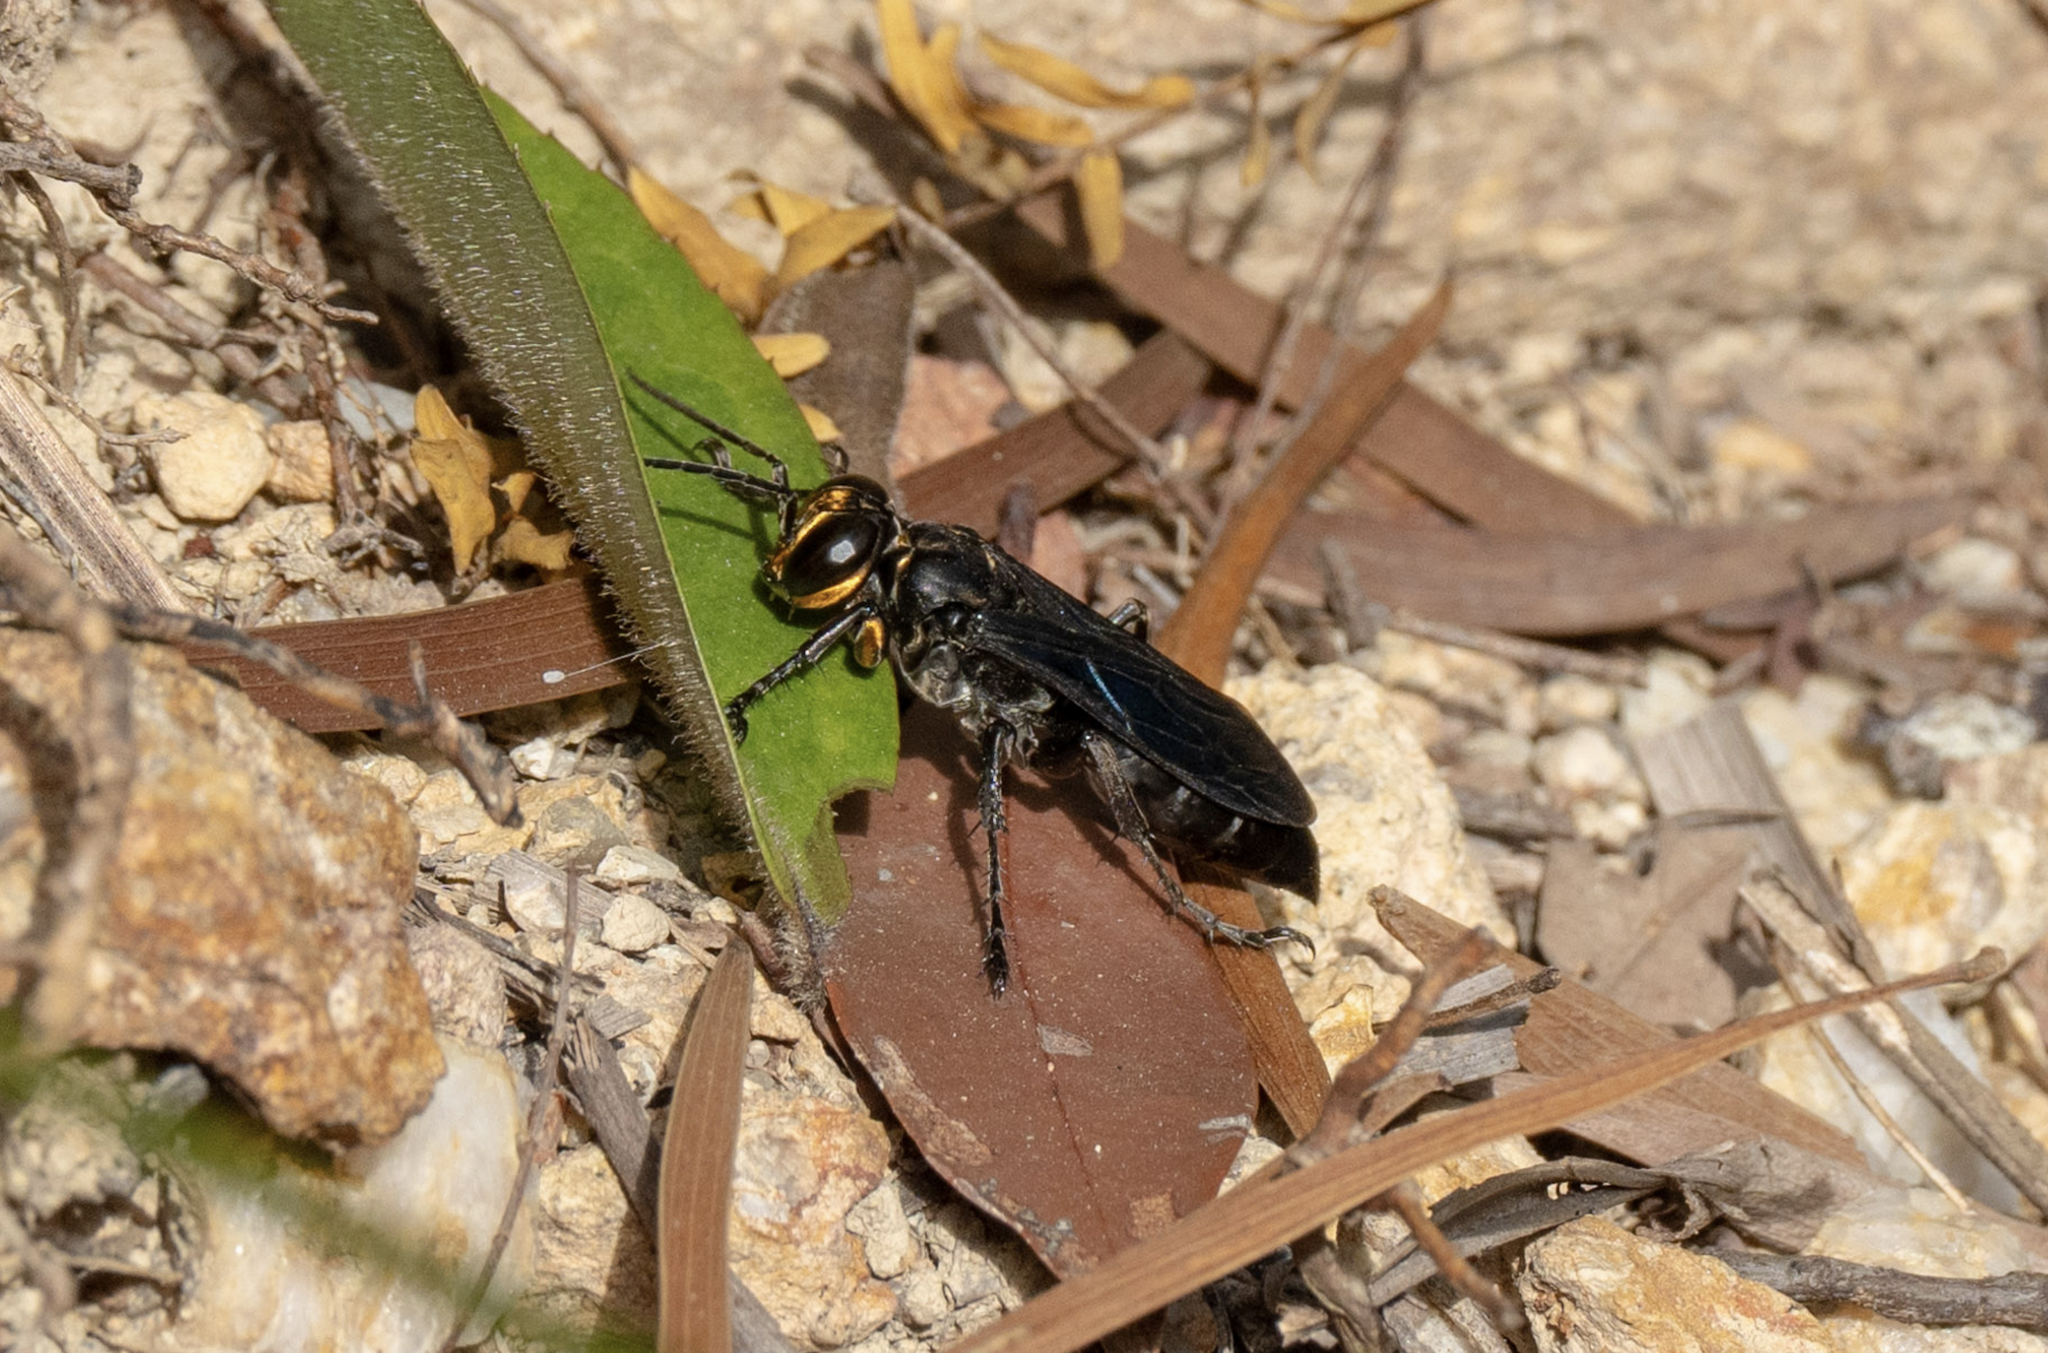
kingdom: Animalia
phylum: Arthropoda
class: Insecta
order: Hymenoptera
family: Crabronidae
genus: Liris
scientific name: Liris anthracinus
